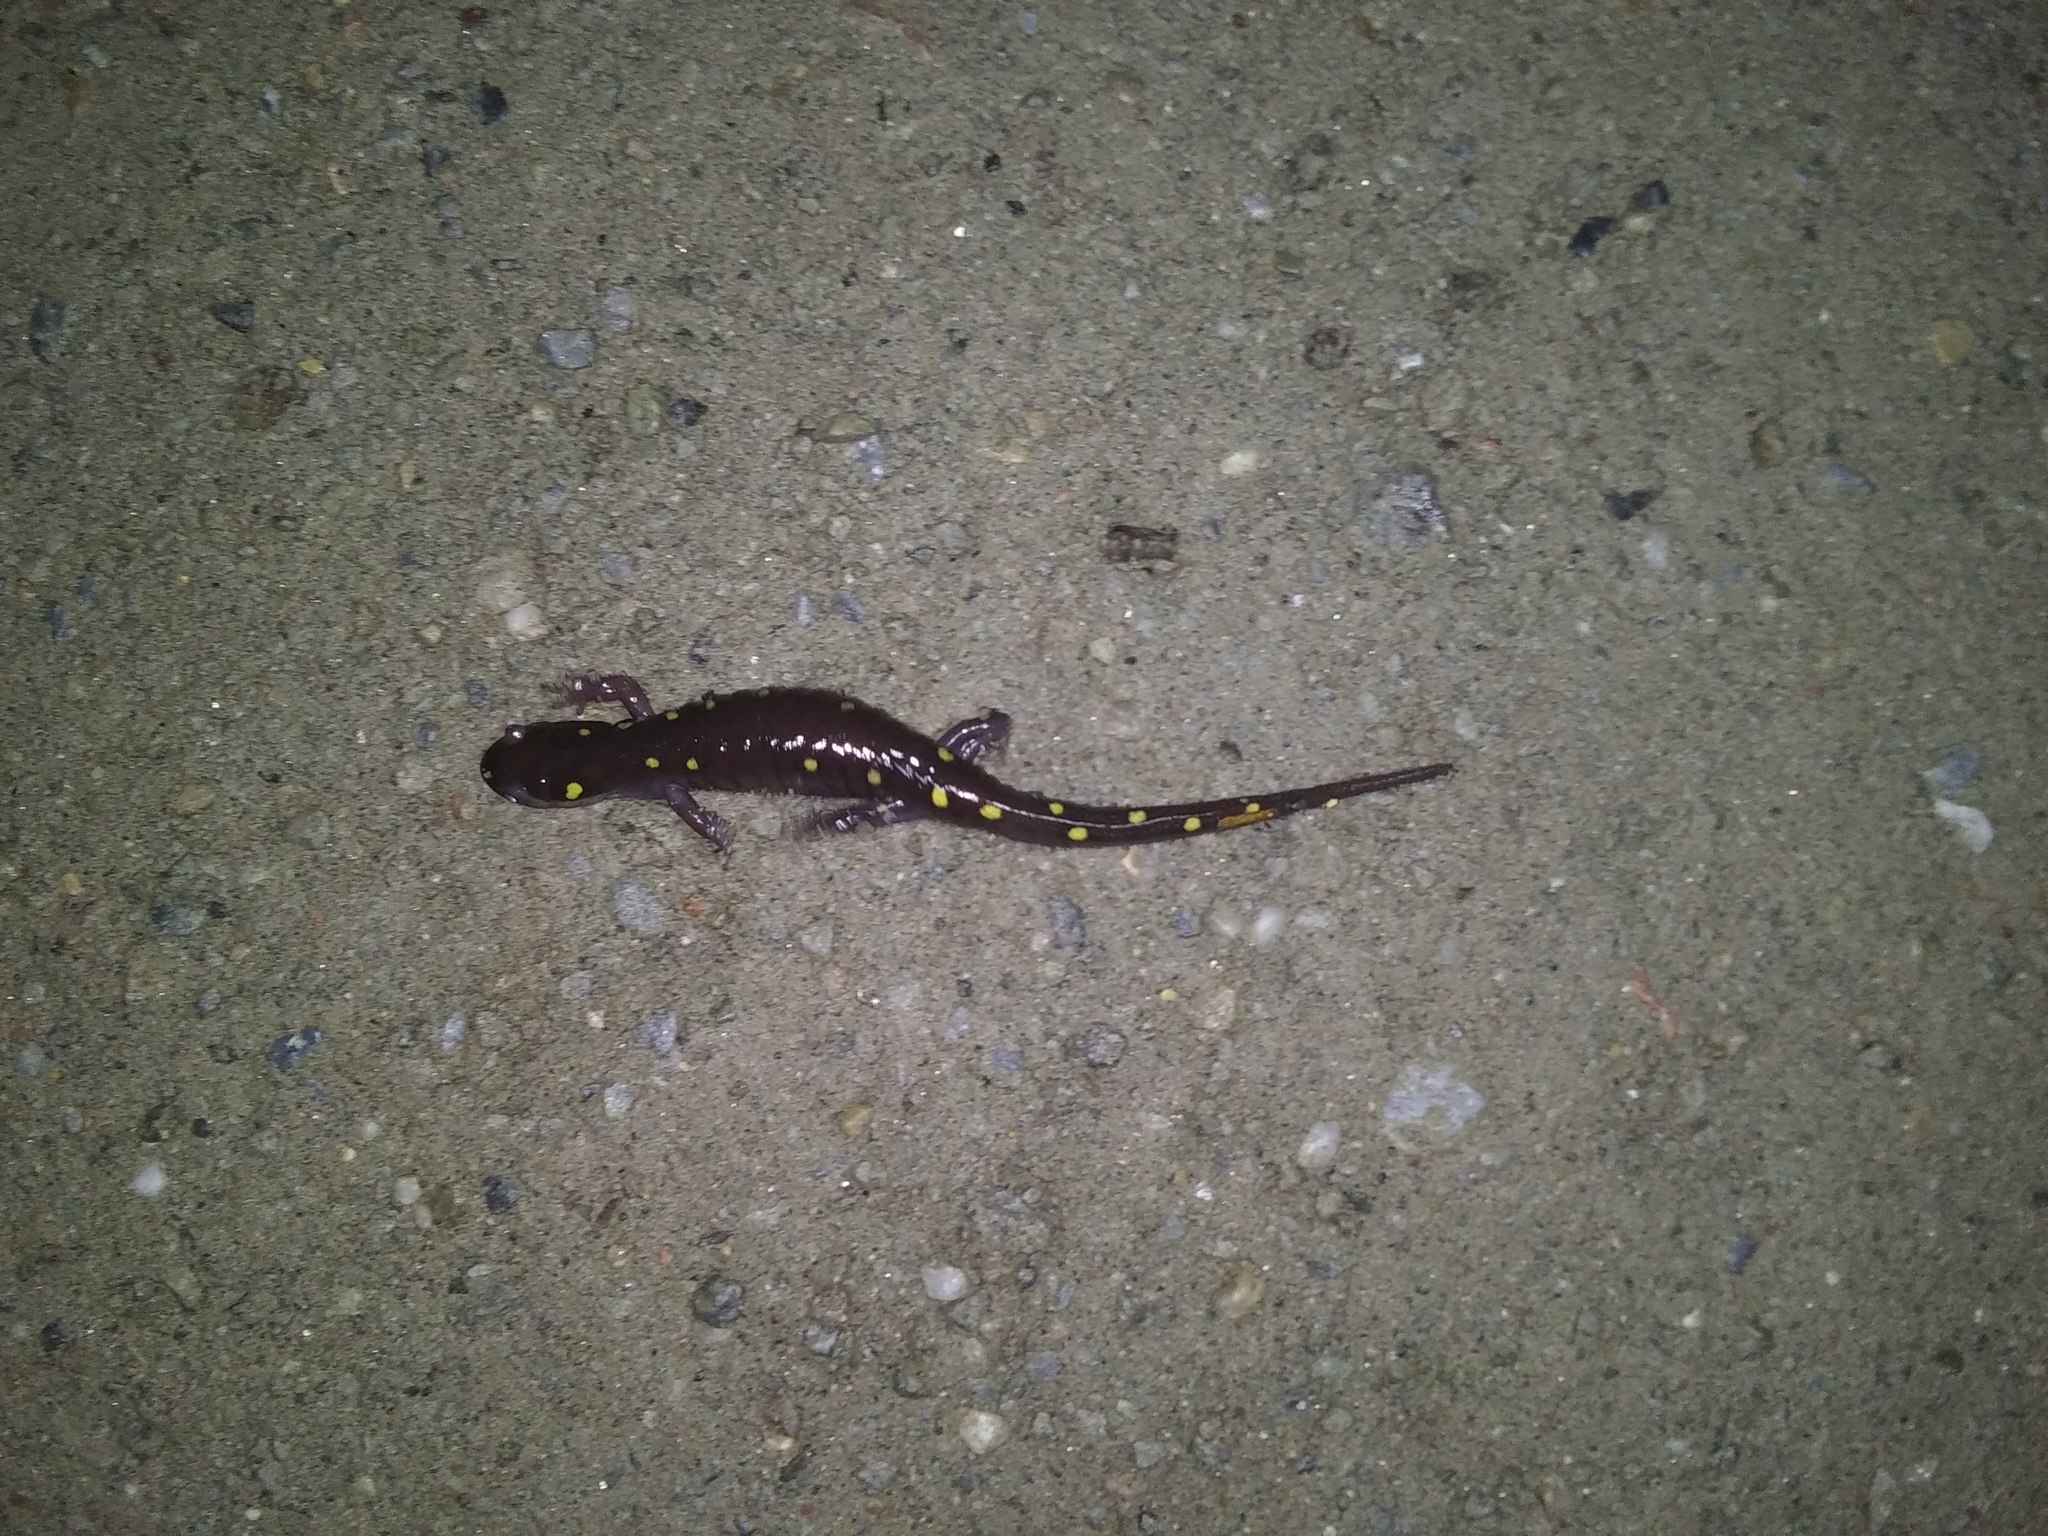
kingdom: Animalia
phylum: Chordata
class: Amphibia
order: Caudata
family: Ambystomatidae
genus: Ambystoma
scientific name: Ambystoma maculatum
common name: Spotted salamander
